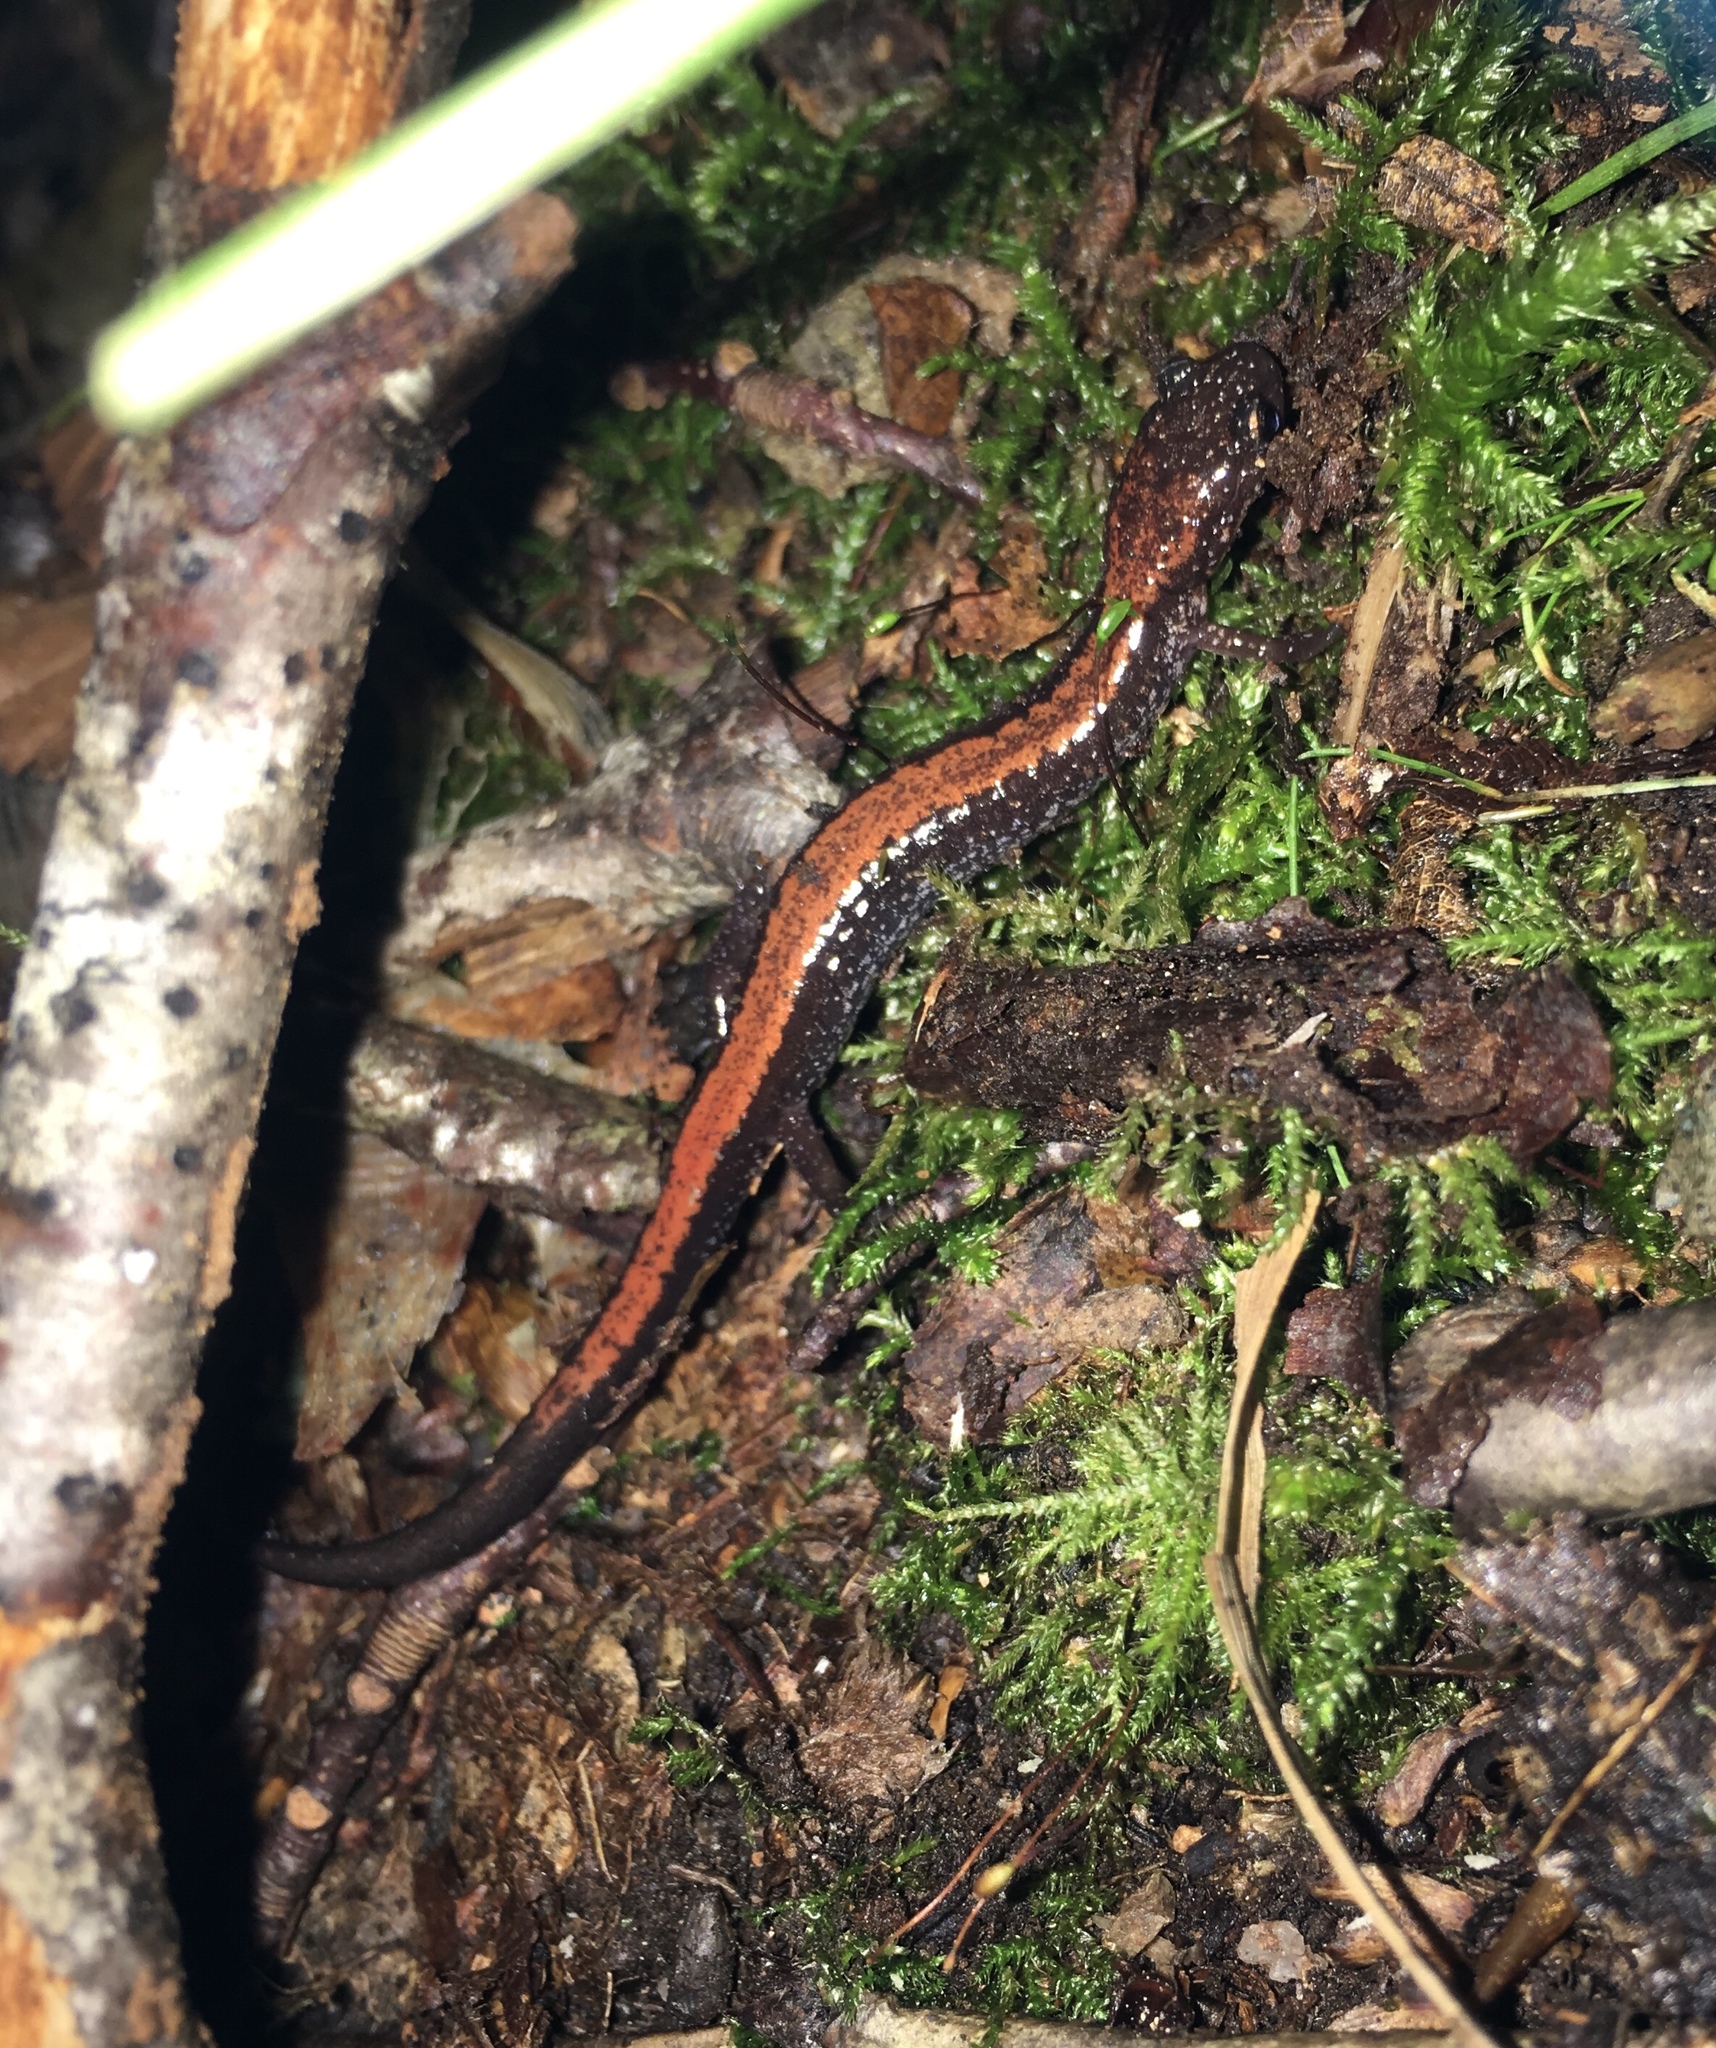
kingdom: Animalia
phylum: Chordata
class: Amphibia
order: Caudata
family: Plethodontidae
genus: Plethodon
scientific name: Plethodon cinereus
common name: Redback salamander
